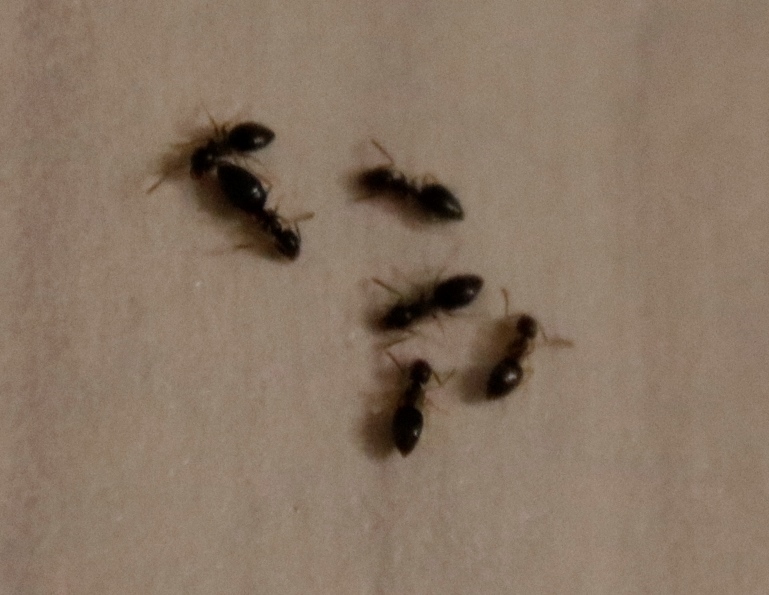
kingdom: Animalia
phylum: Arthropoda
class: Insecta
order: Hymenoptera
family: Formicidae
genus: Tapinoma
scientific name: Tapinoma pallipes
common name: Ant
